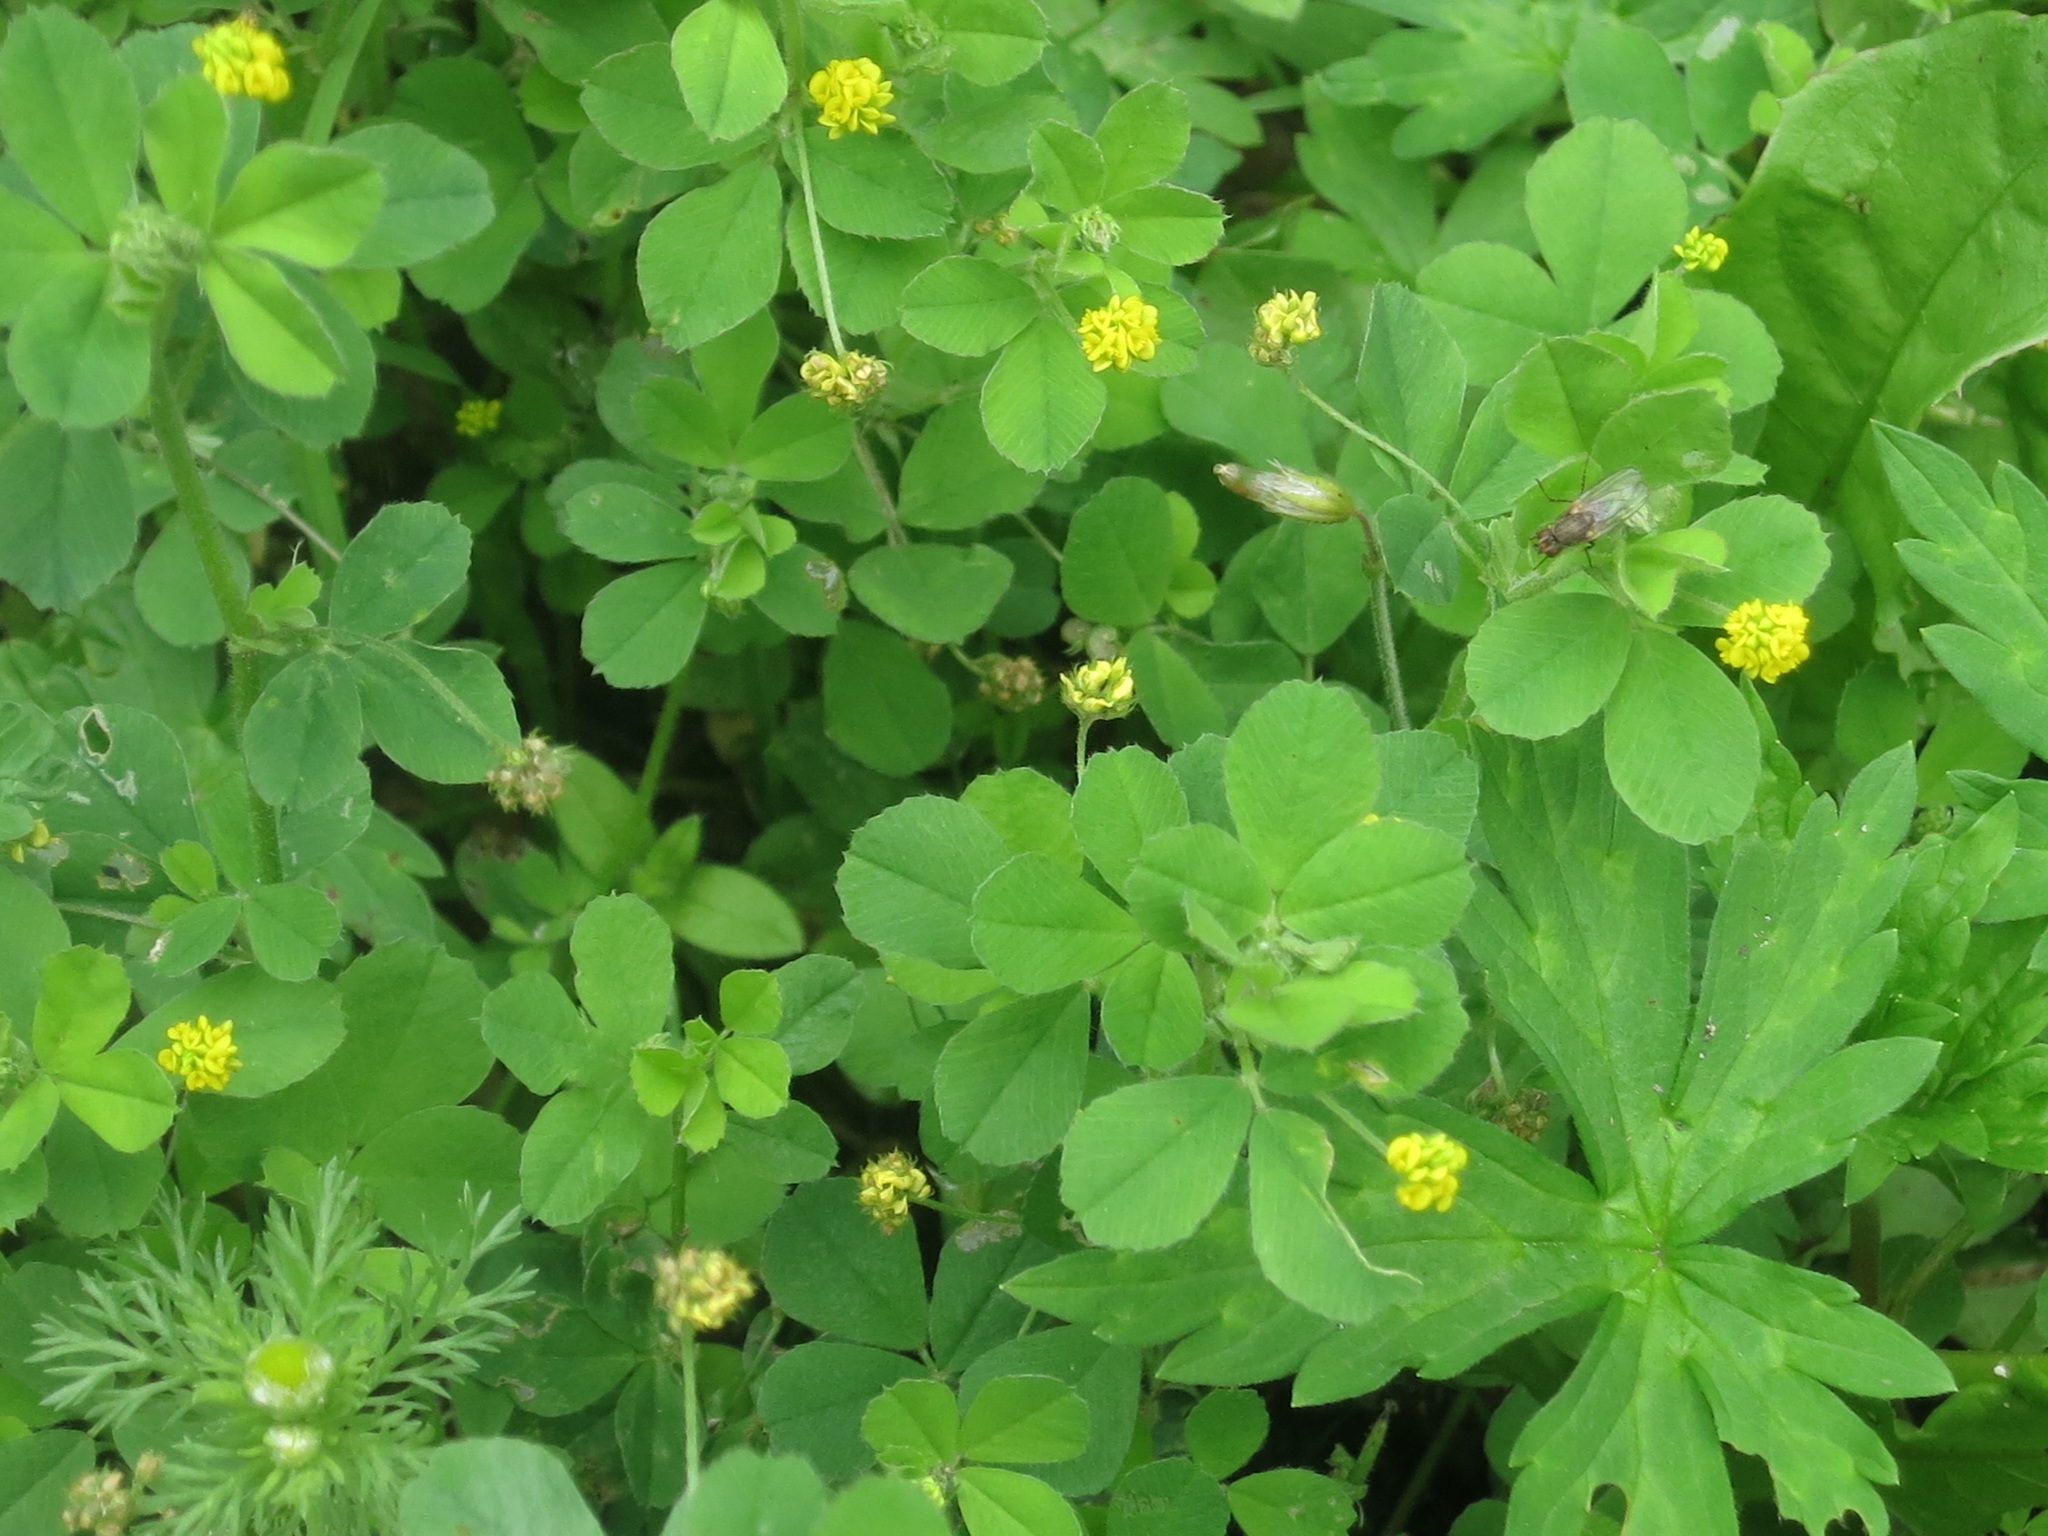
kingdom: Plantae
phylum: Tracheophyta
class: Magnoliopsida
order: Fabales
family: Fabaceae
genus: Medicago
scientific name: Medicago lupulina
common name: Black medick
